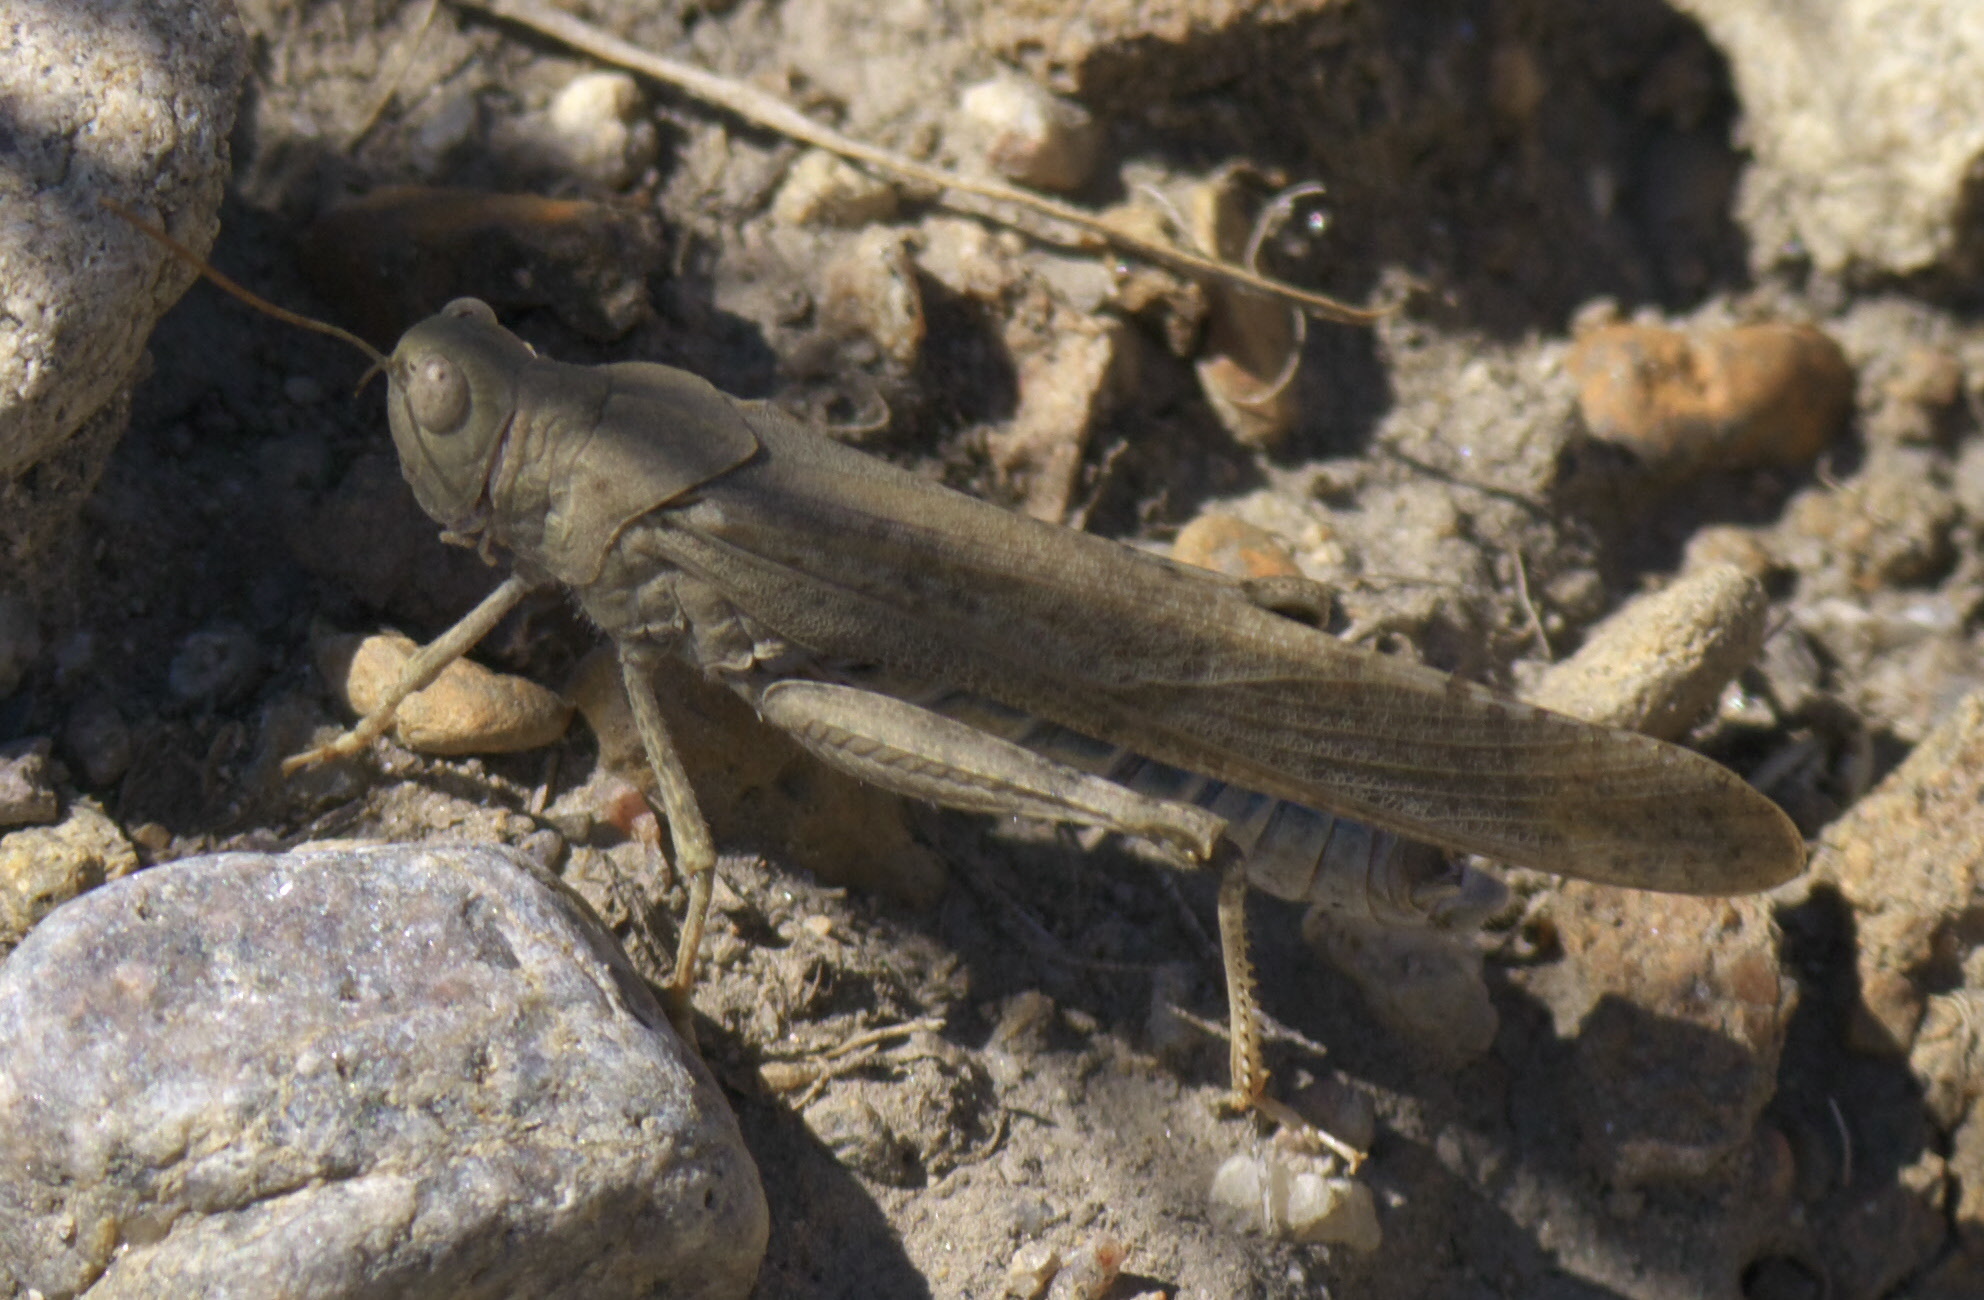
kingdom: Animalia
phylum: Arthropoda
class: Insecta
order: Orthoptera
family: Acrididae
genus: Dissosteira
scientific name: Dissosteira carolina
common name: Carolina grasshopper
